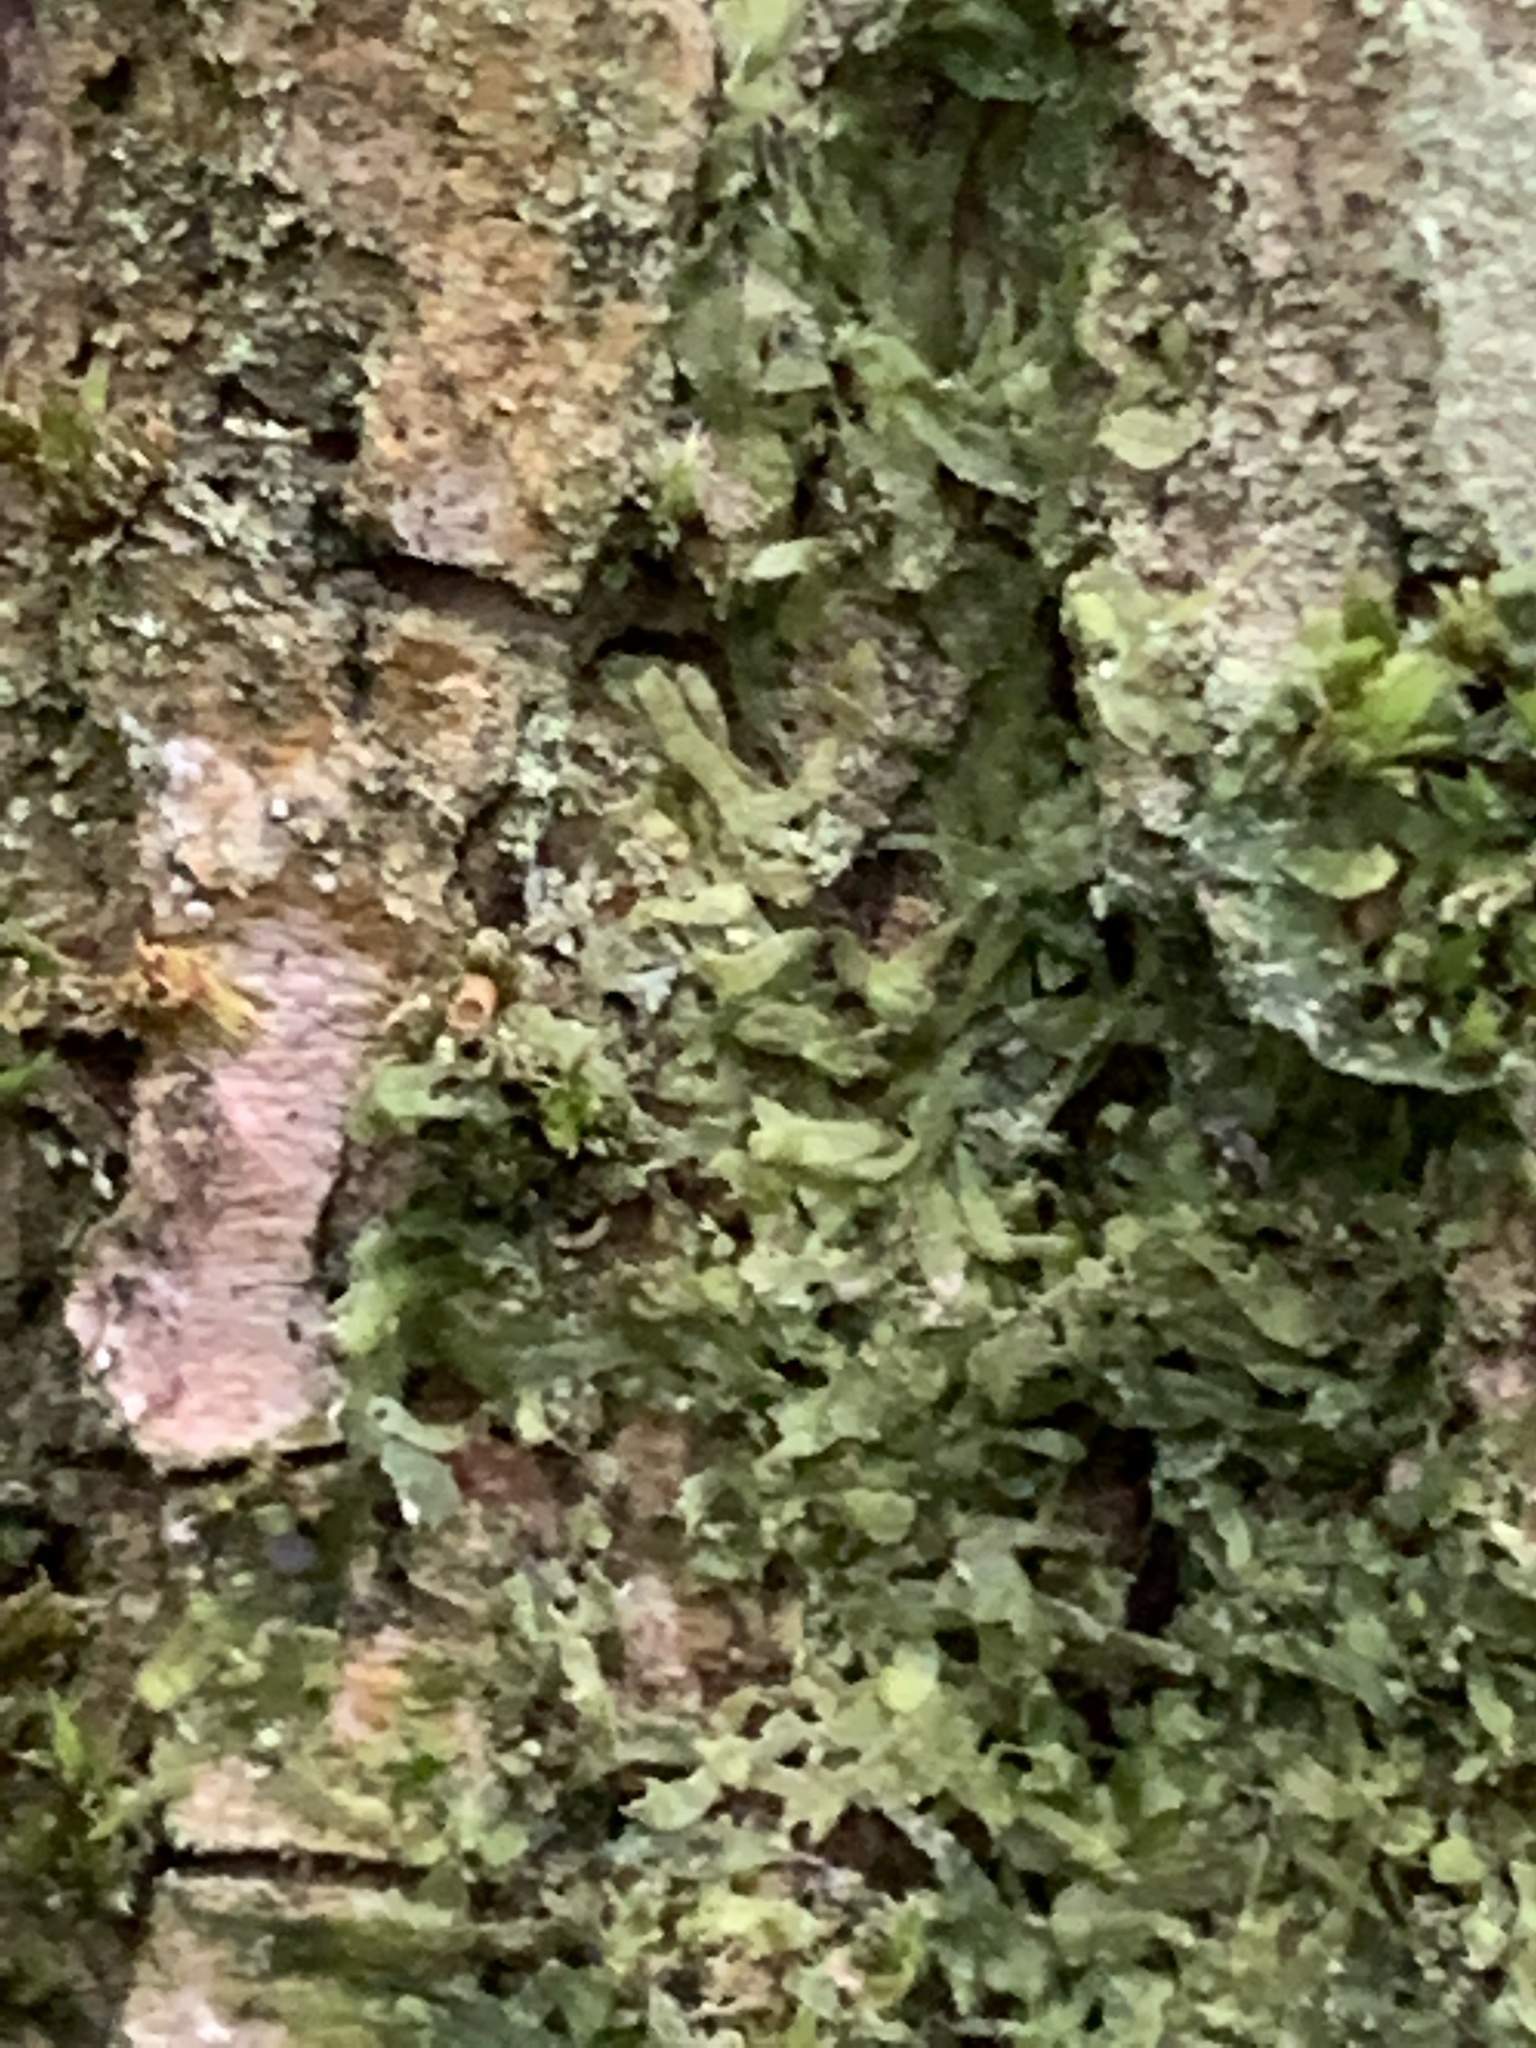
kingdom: Plantae
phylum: Marchantiophyta
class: Jungermanniopsida
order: Metzgeriales
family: Metzgeriaceae
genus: Metzgeria
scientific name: Metzgeria furcata
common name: Forked veilwort
